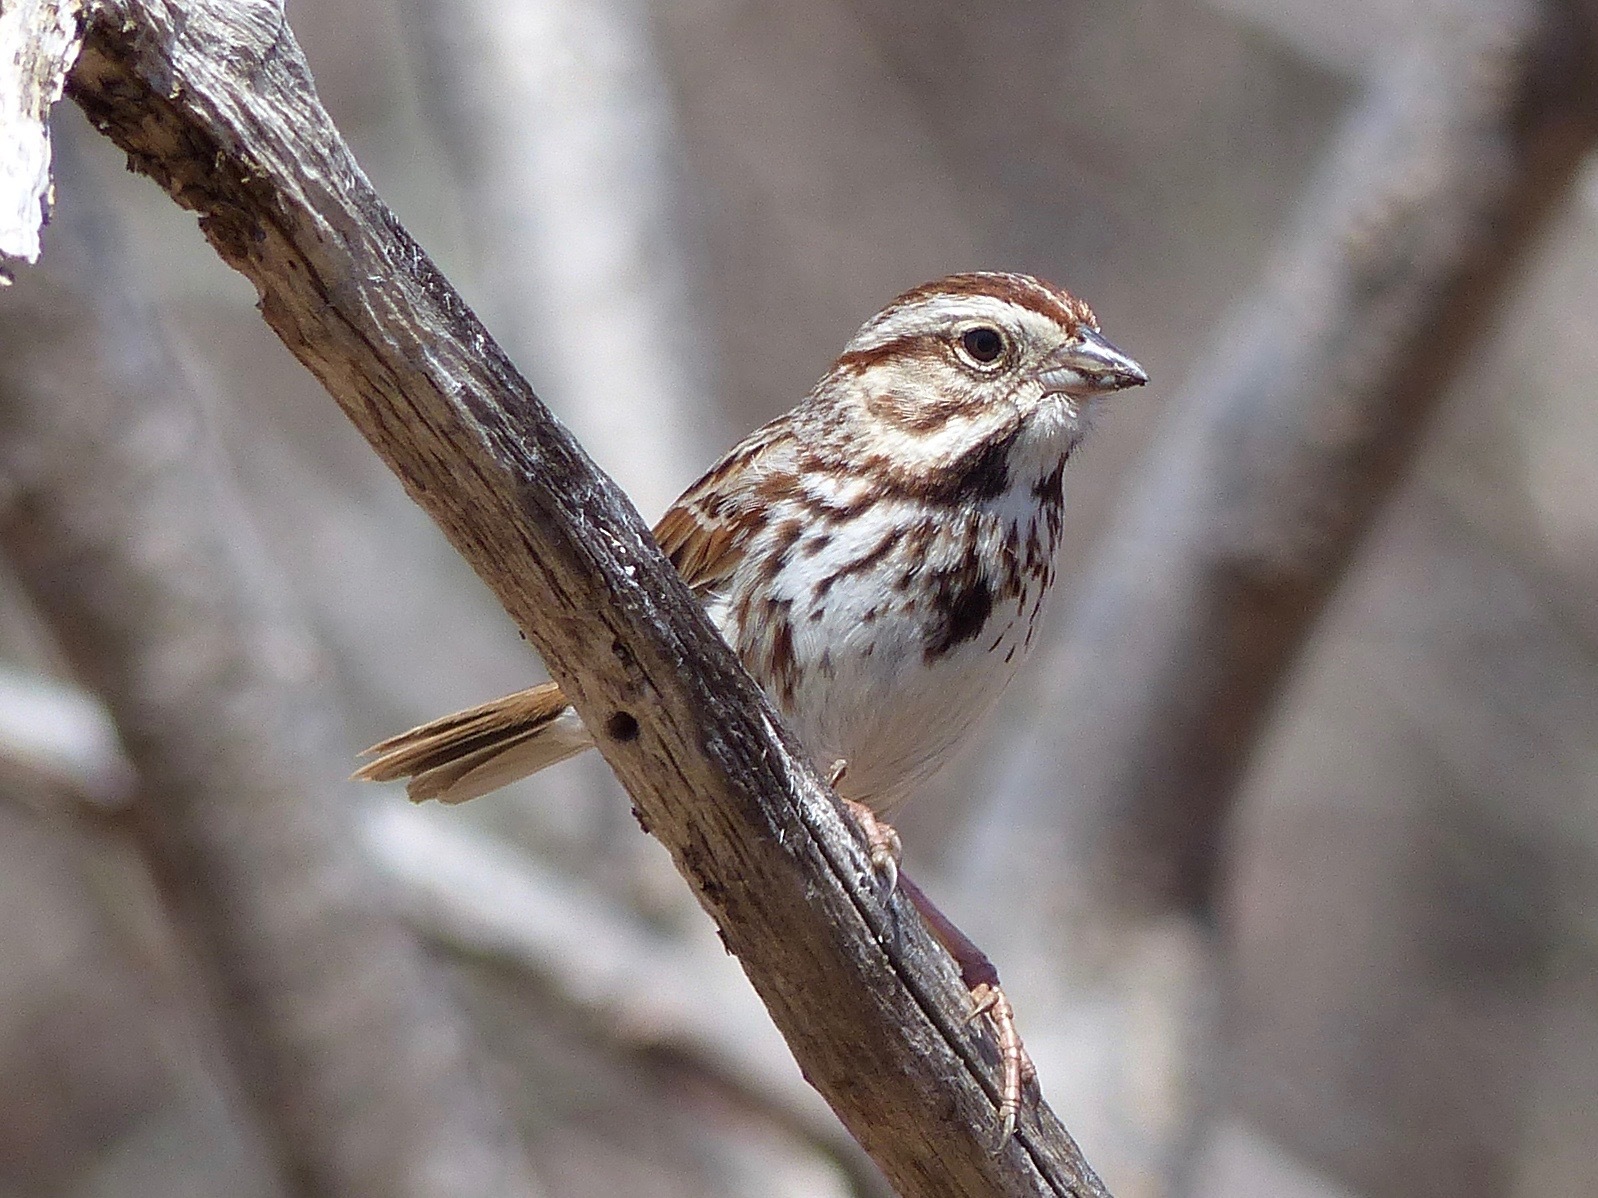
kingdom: Animalia
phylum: Chordata
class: Aves
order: Passeriformes
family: Passerellidae
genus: Melospiza
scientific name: Melospiza melodia
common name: Song sparrow
